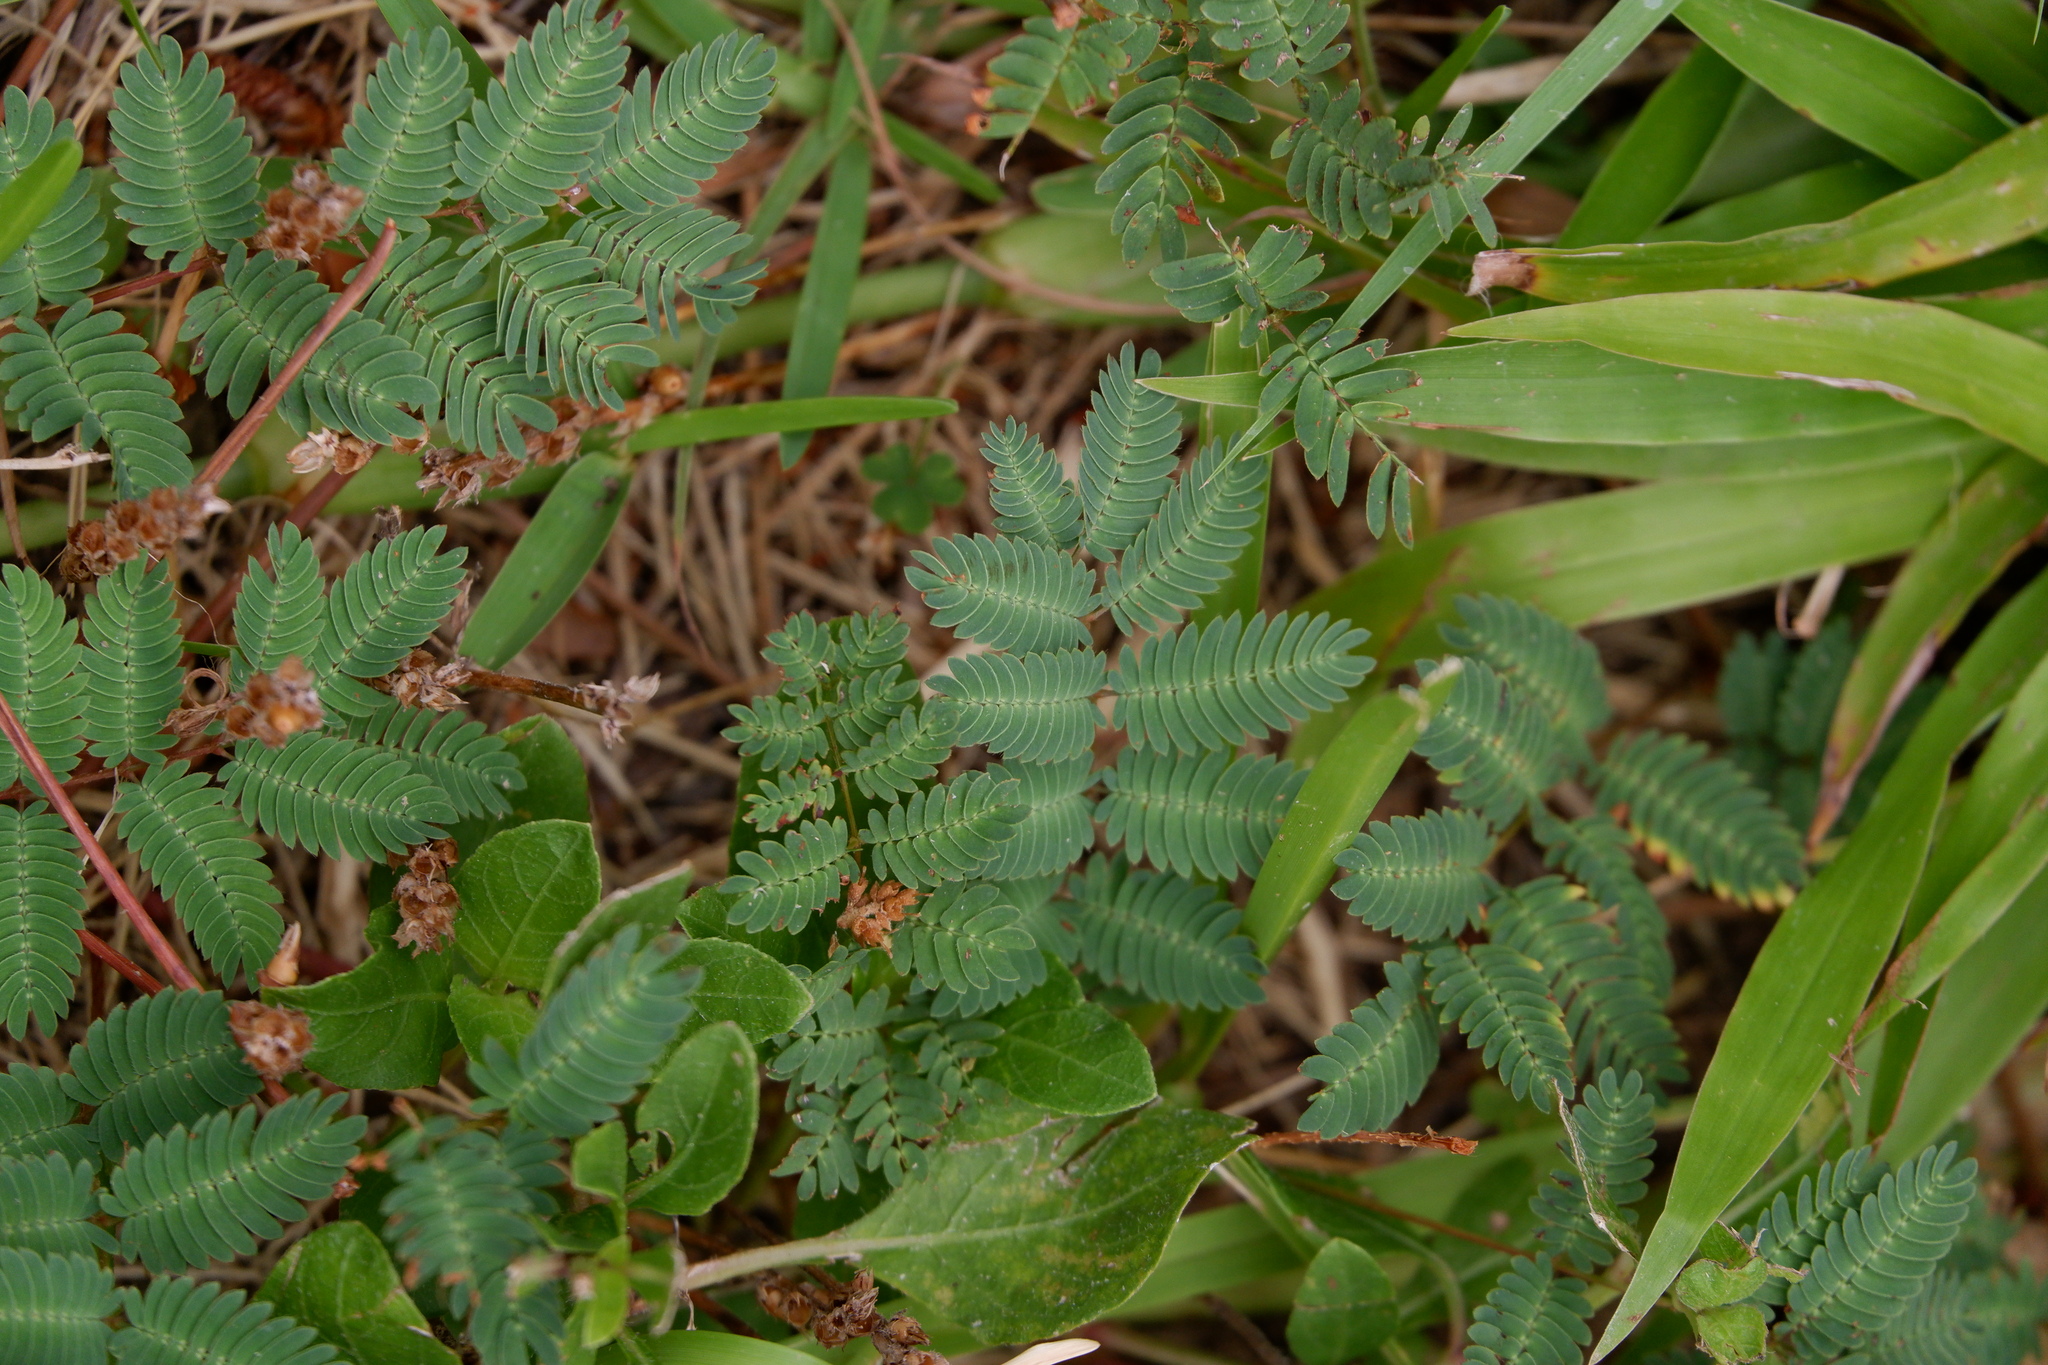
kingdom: Plantae
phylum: Tracheophyta
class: Magnoliopsida
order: Fabales
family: Fabaceae
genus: Mimosa
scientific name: Mimosa strigillosa
